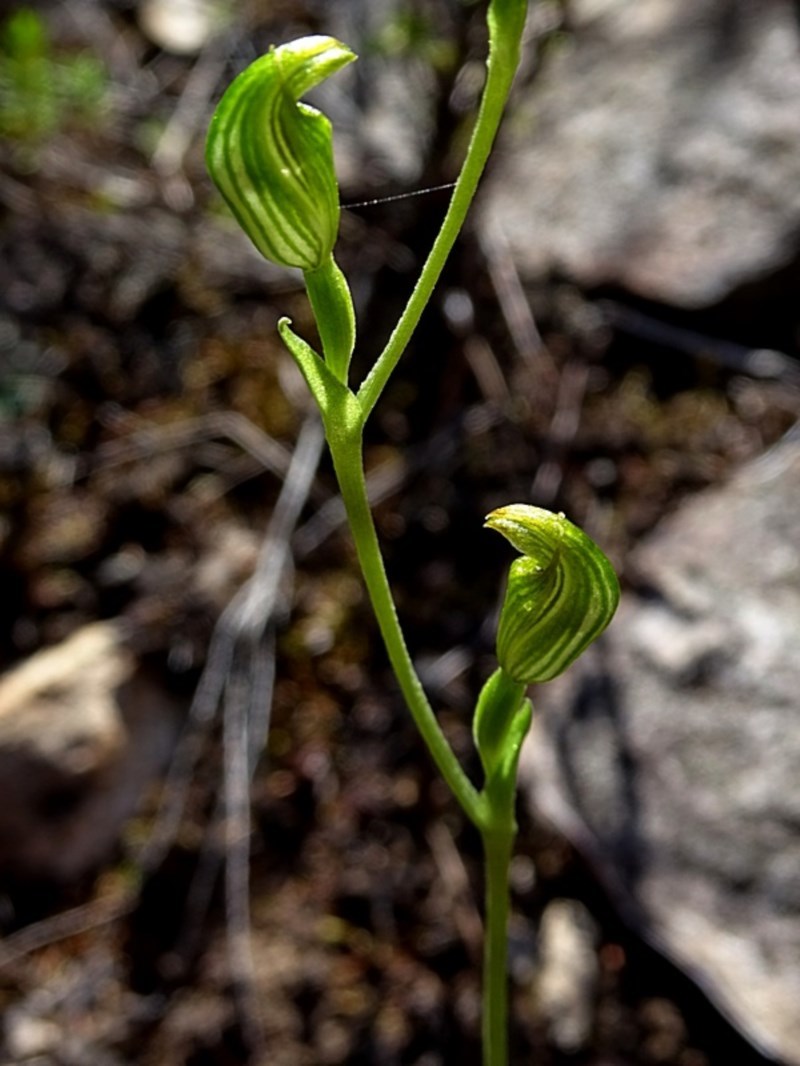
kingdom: Plantae
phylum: Tracheophyta
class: Liliopsida
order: Asparagales
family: Orchidaceae
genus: Pterostylis
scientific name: Pterostylis parviflora
